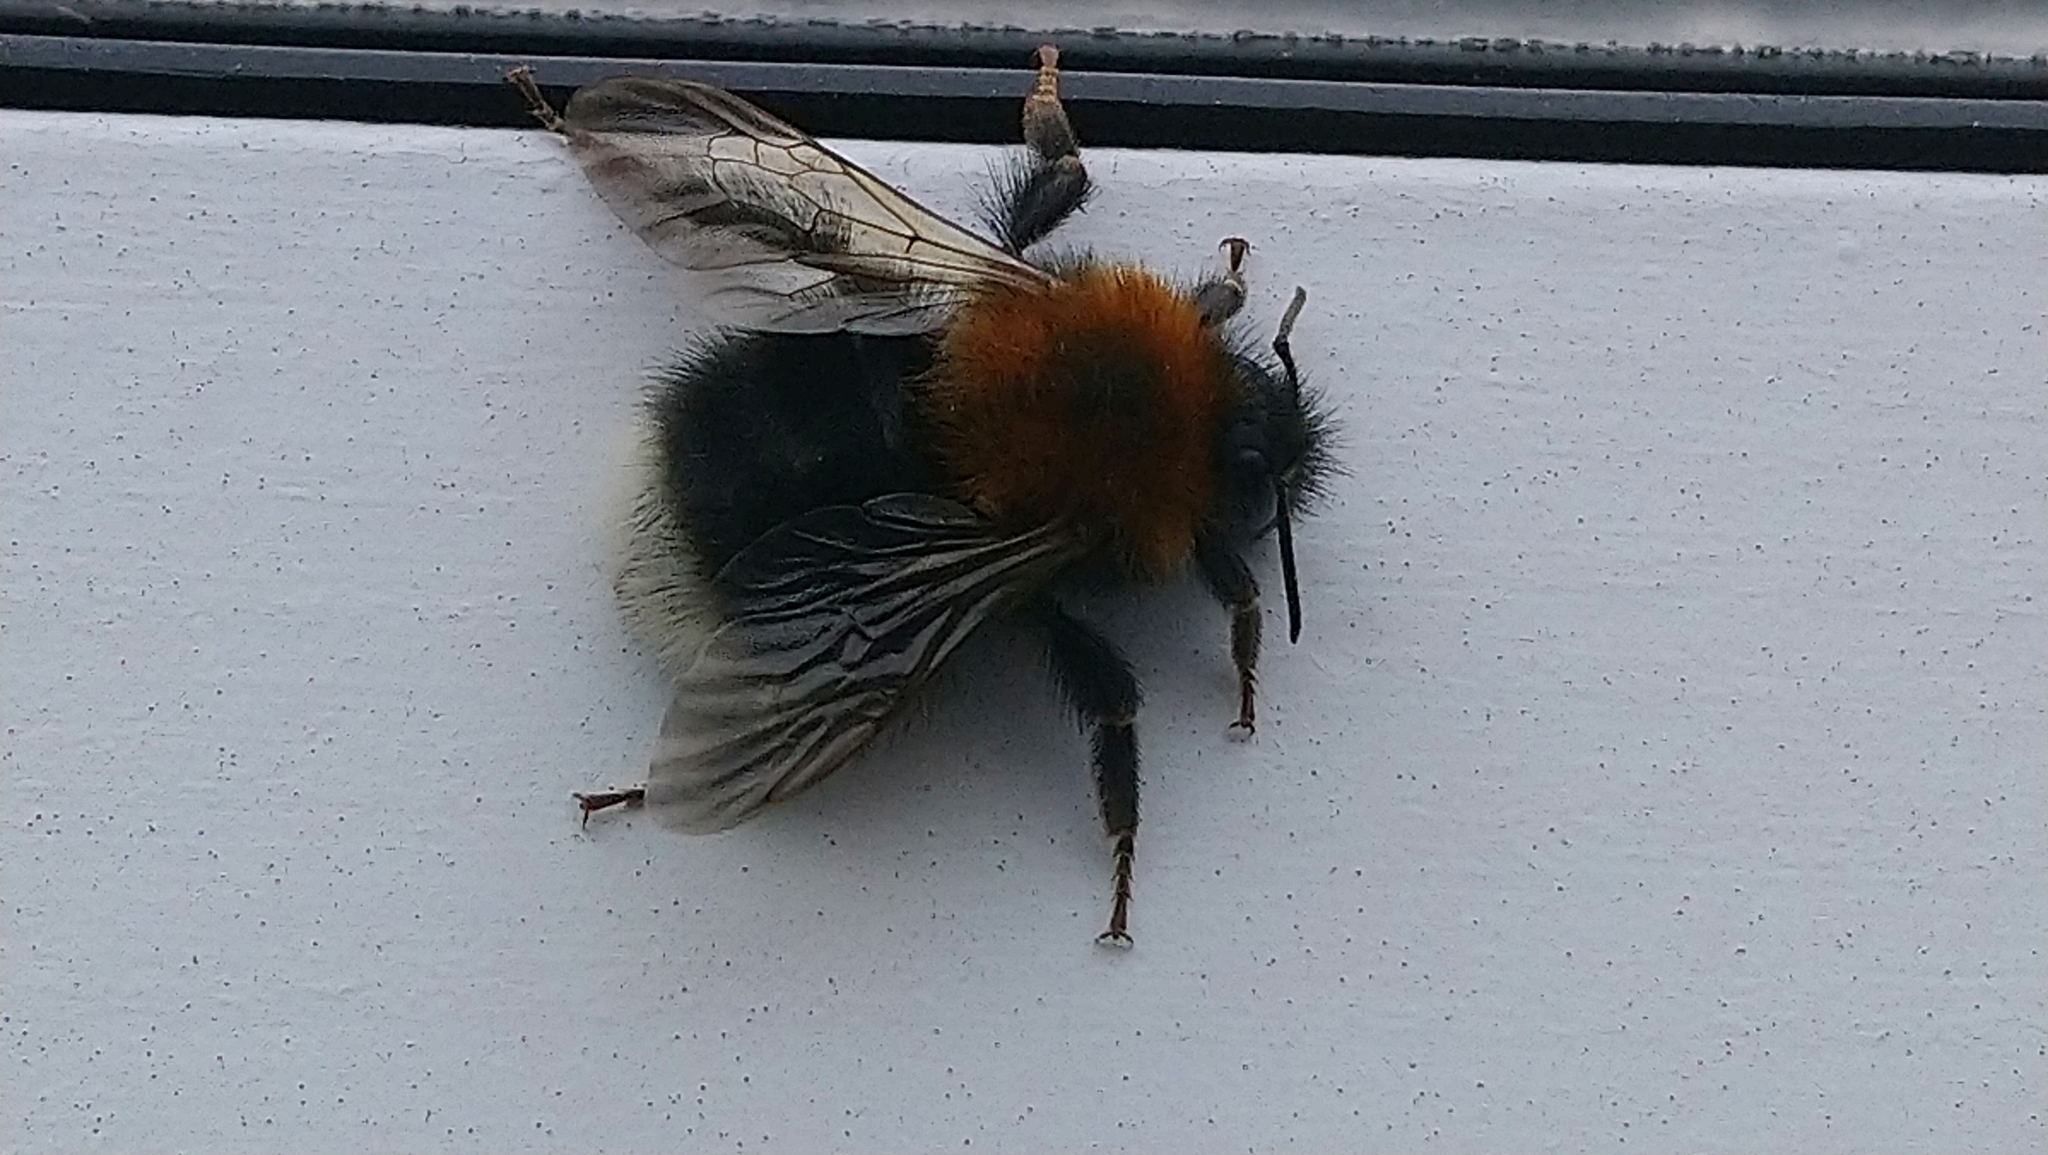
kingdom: Animalia
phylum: Arthropoda
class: Insecta
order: Hymenoptera
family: Apidae
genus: Bombus
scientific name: Bombus hypnorum
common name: New garden bumblebee
